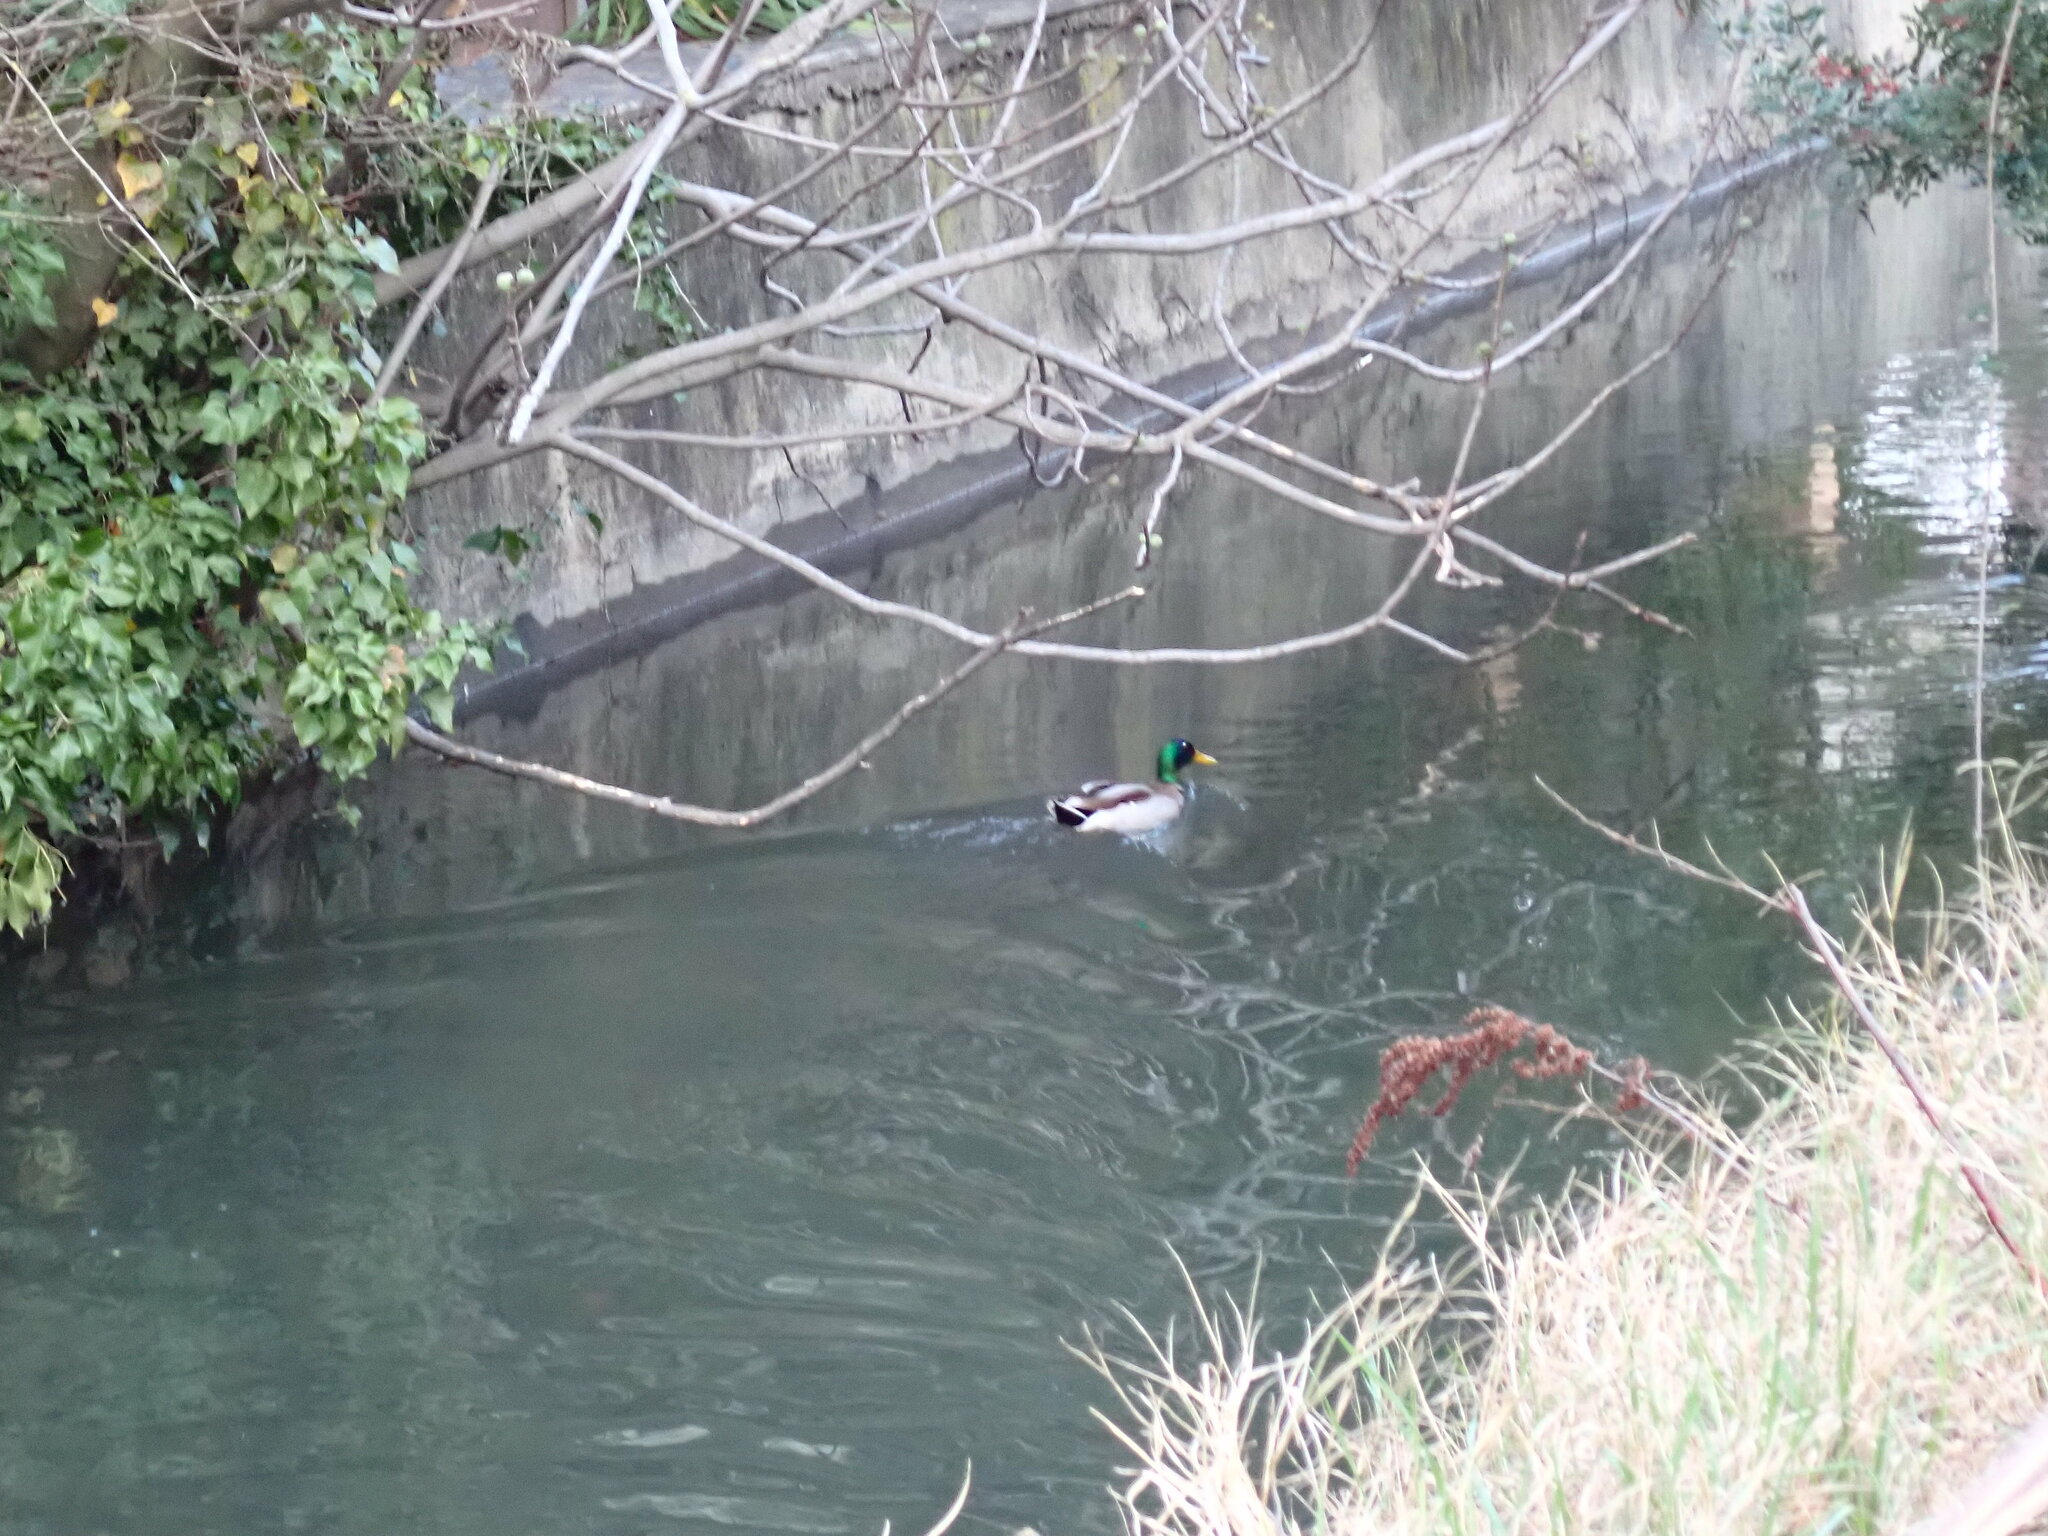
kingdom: Animalia
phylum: Chordata
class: Aves
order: Anseriformes
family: Anatidae
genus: Anas
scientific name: Anas platyrhynchos
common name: Mallard
